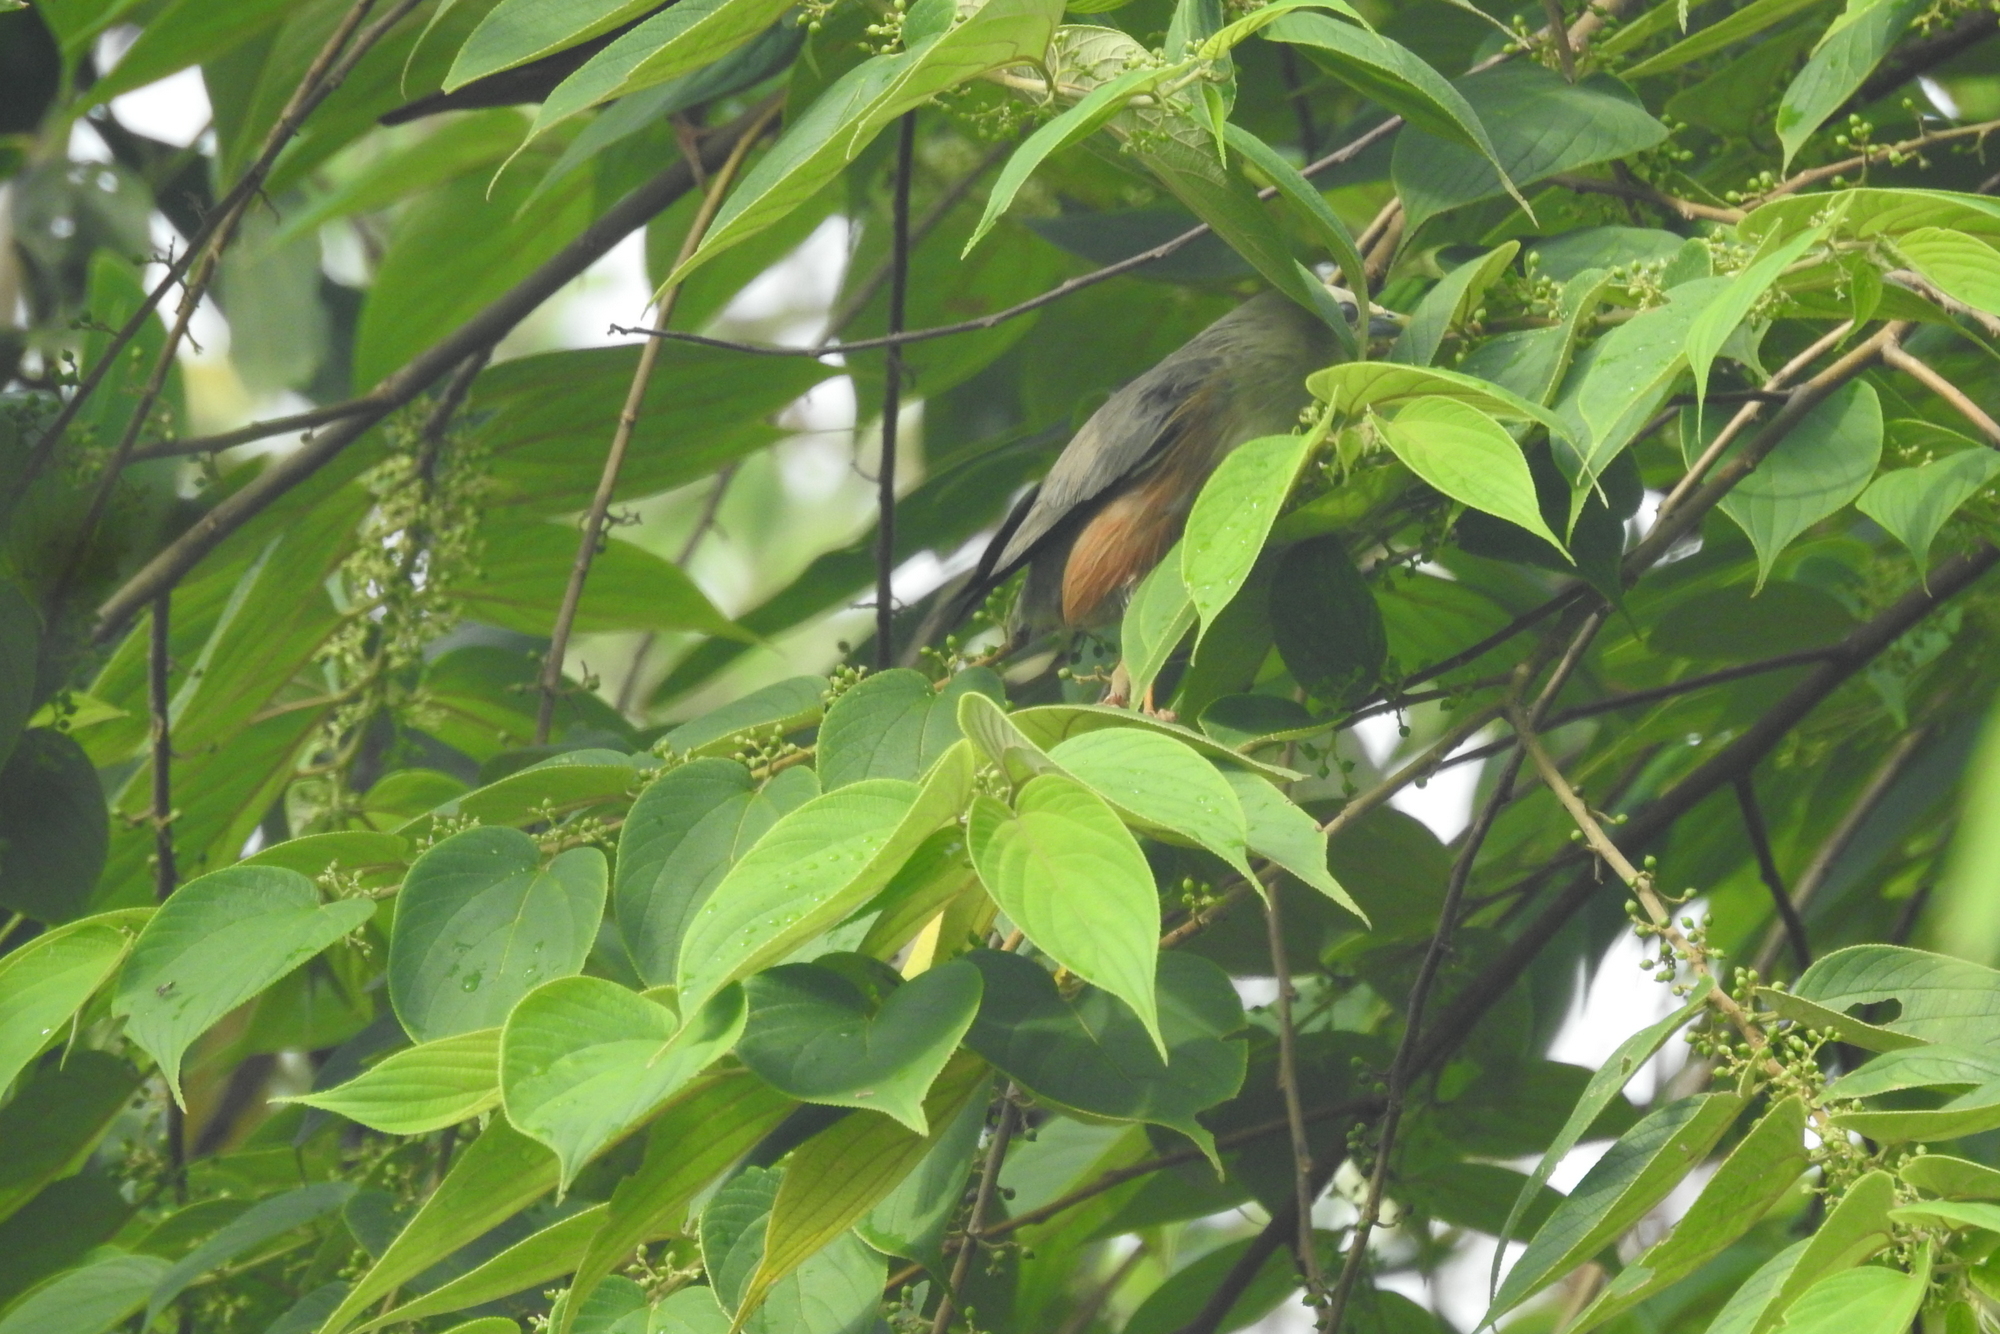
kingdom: Animalia
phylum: Chordata
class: Aves
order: Passeriformes
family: Sturnidae
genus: Sturnia
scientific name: Sturnia malabarica
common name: Chestnut-tailed starling
